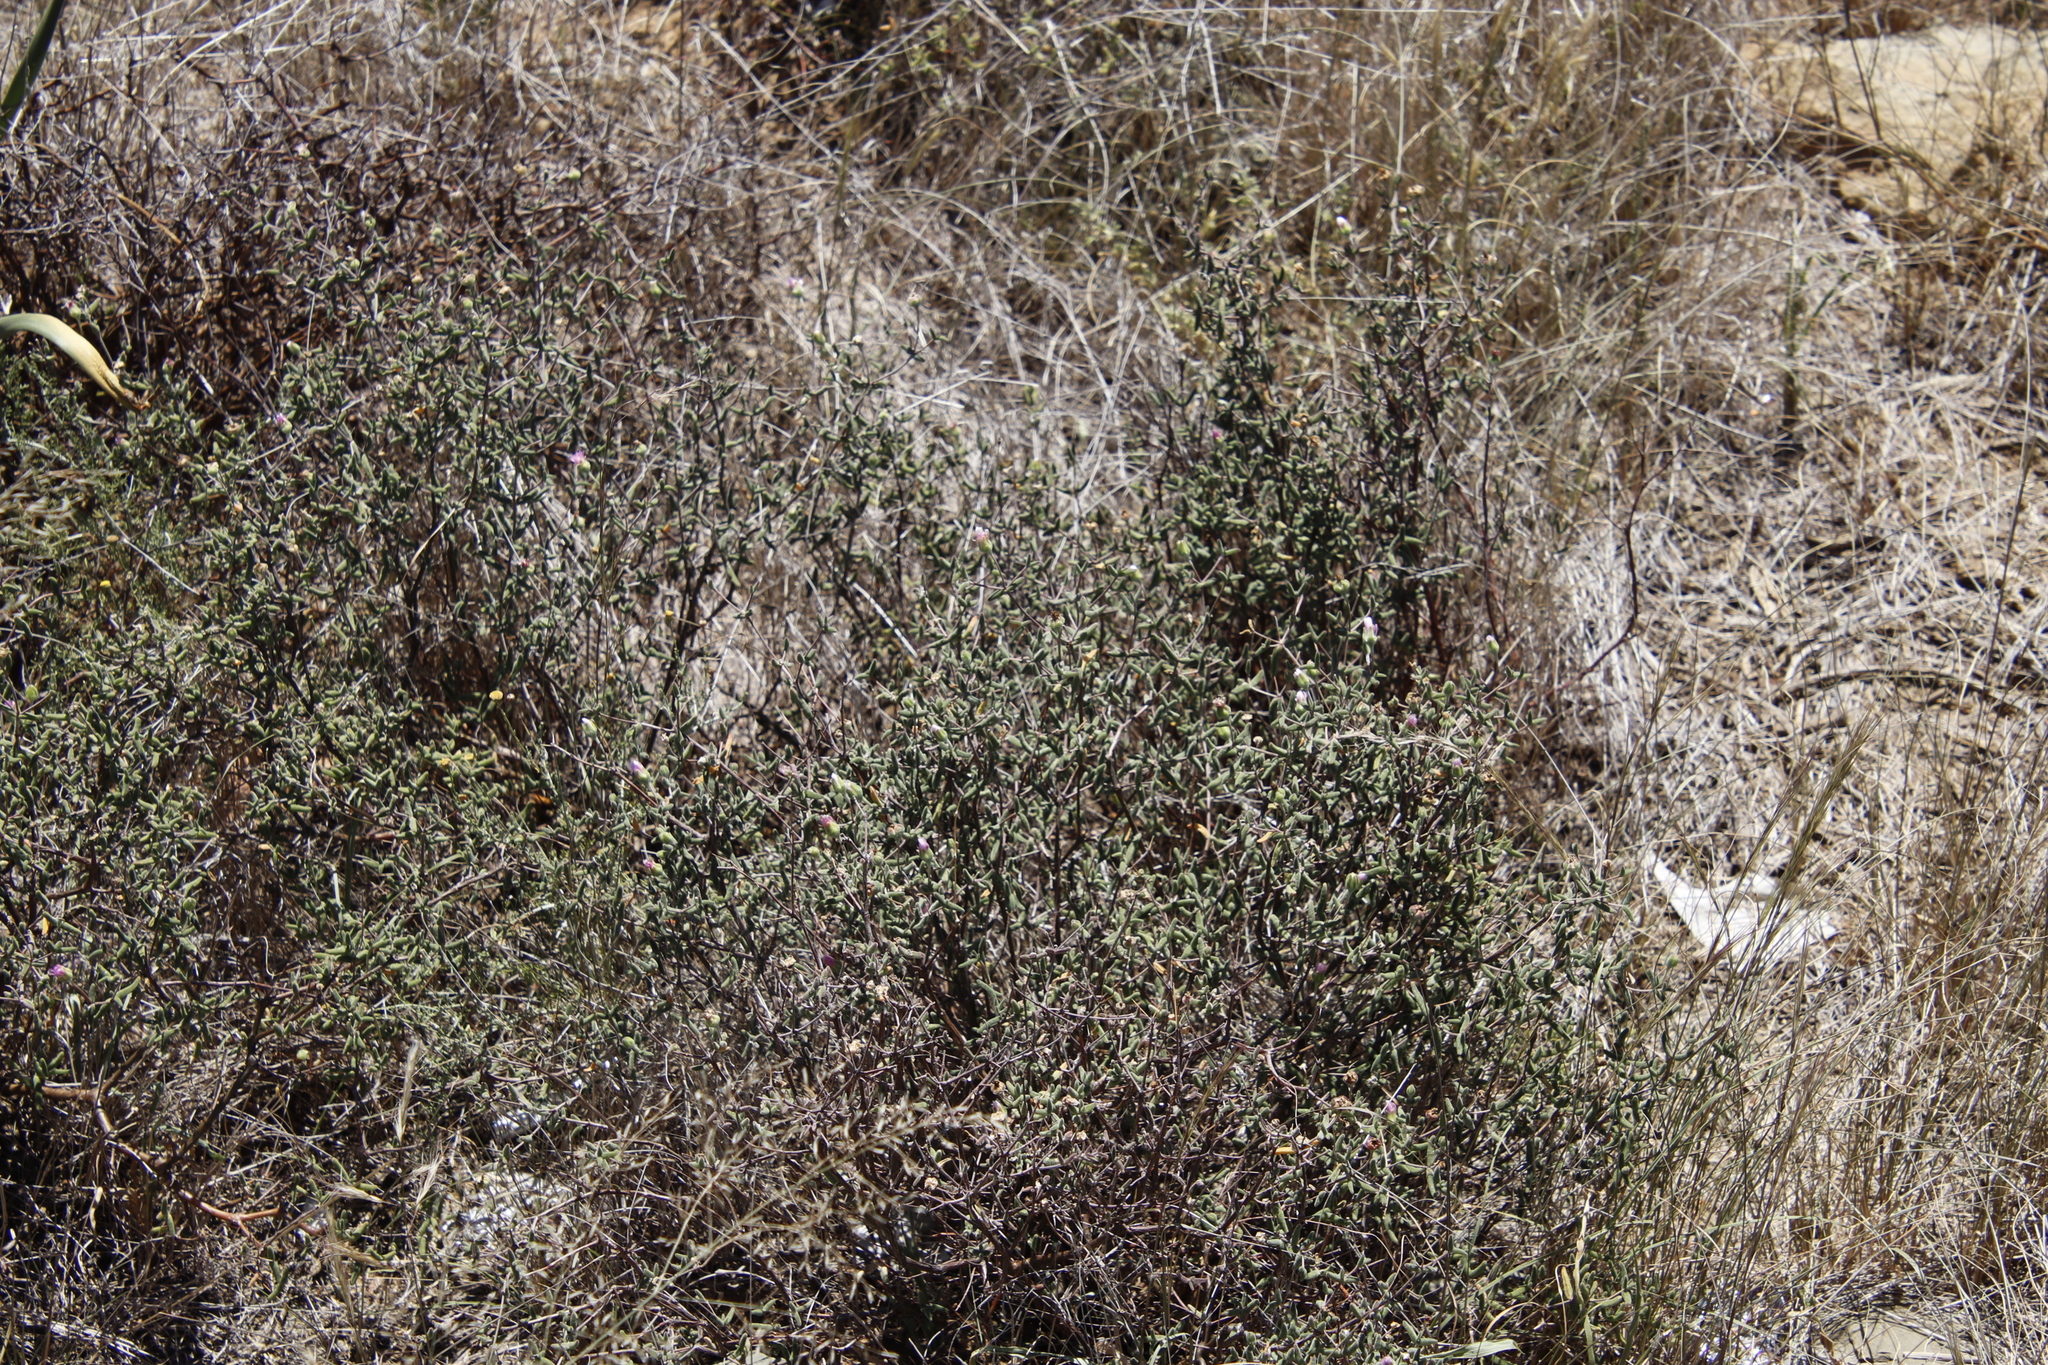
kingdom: Plantae
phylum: Tracheophyta
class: Magnoliopsida
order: Caryophyllales
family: Aizoaceae
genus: Drosanthemum
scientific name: Drosanthemum lique
